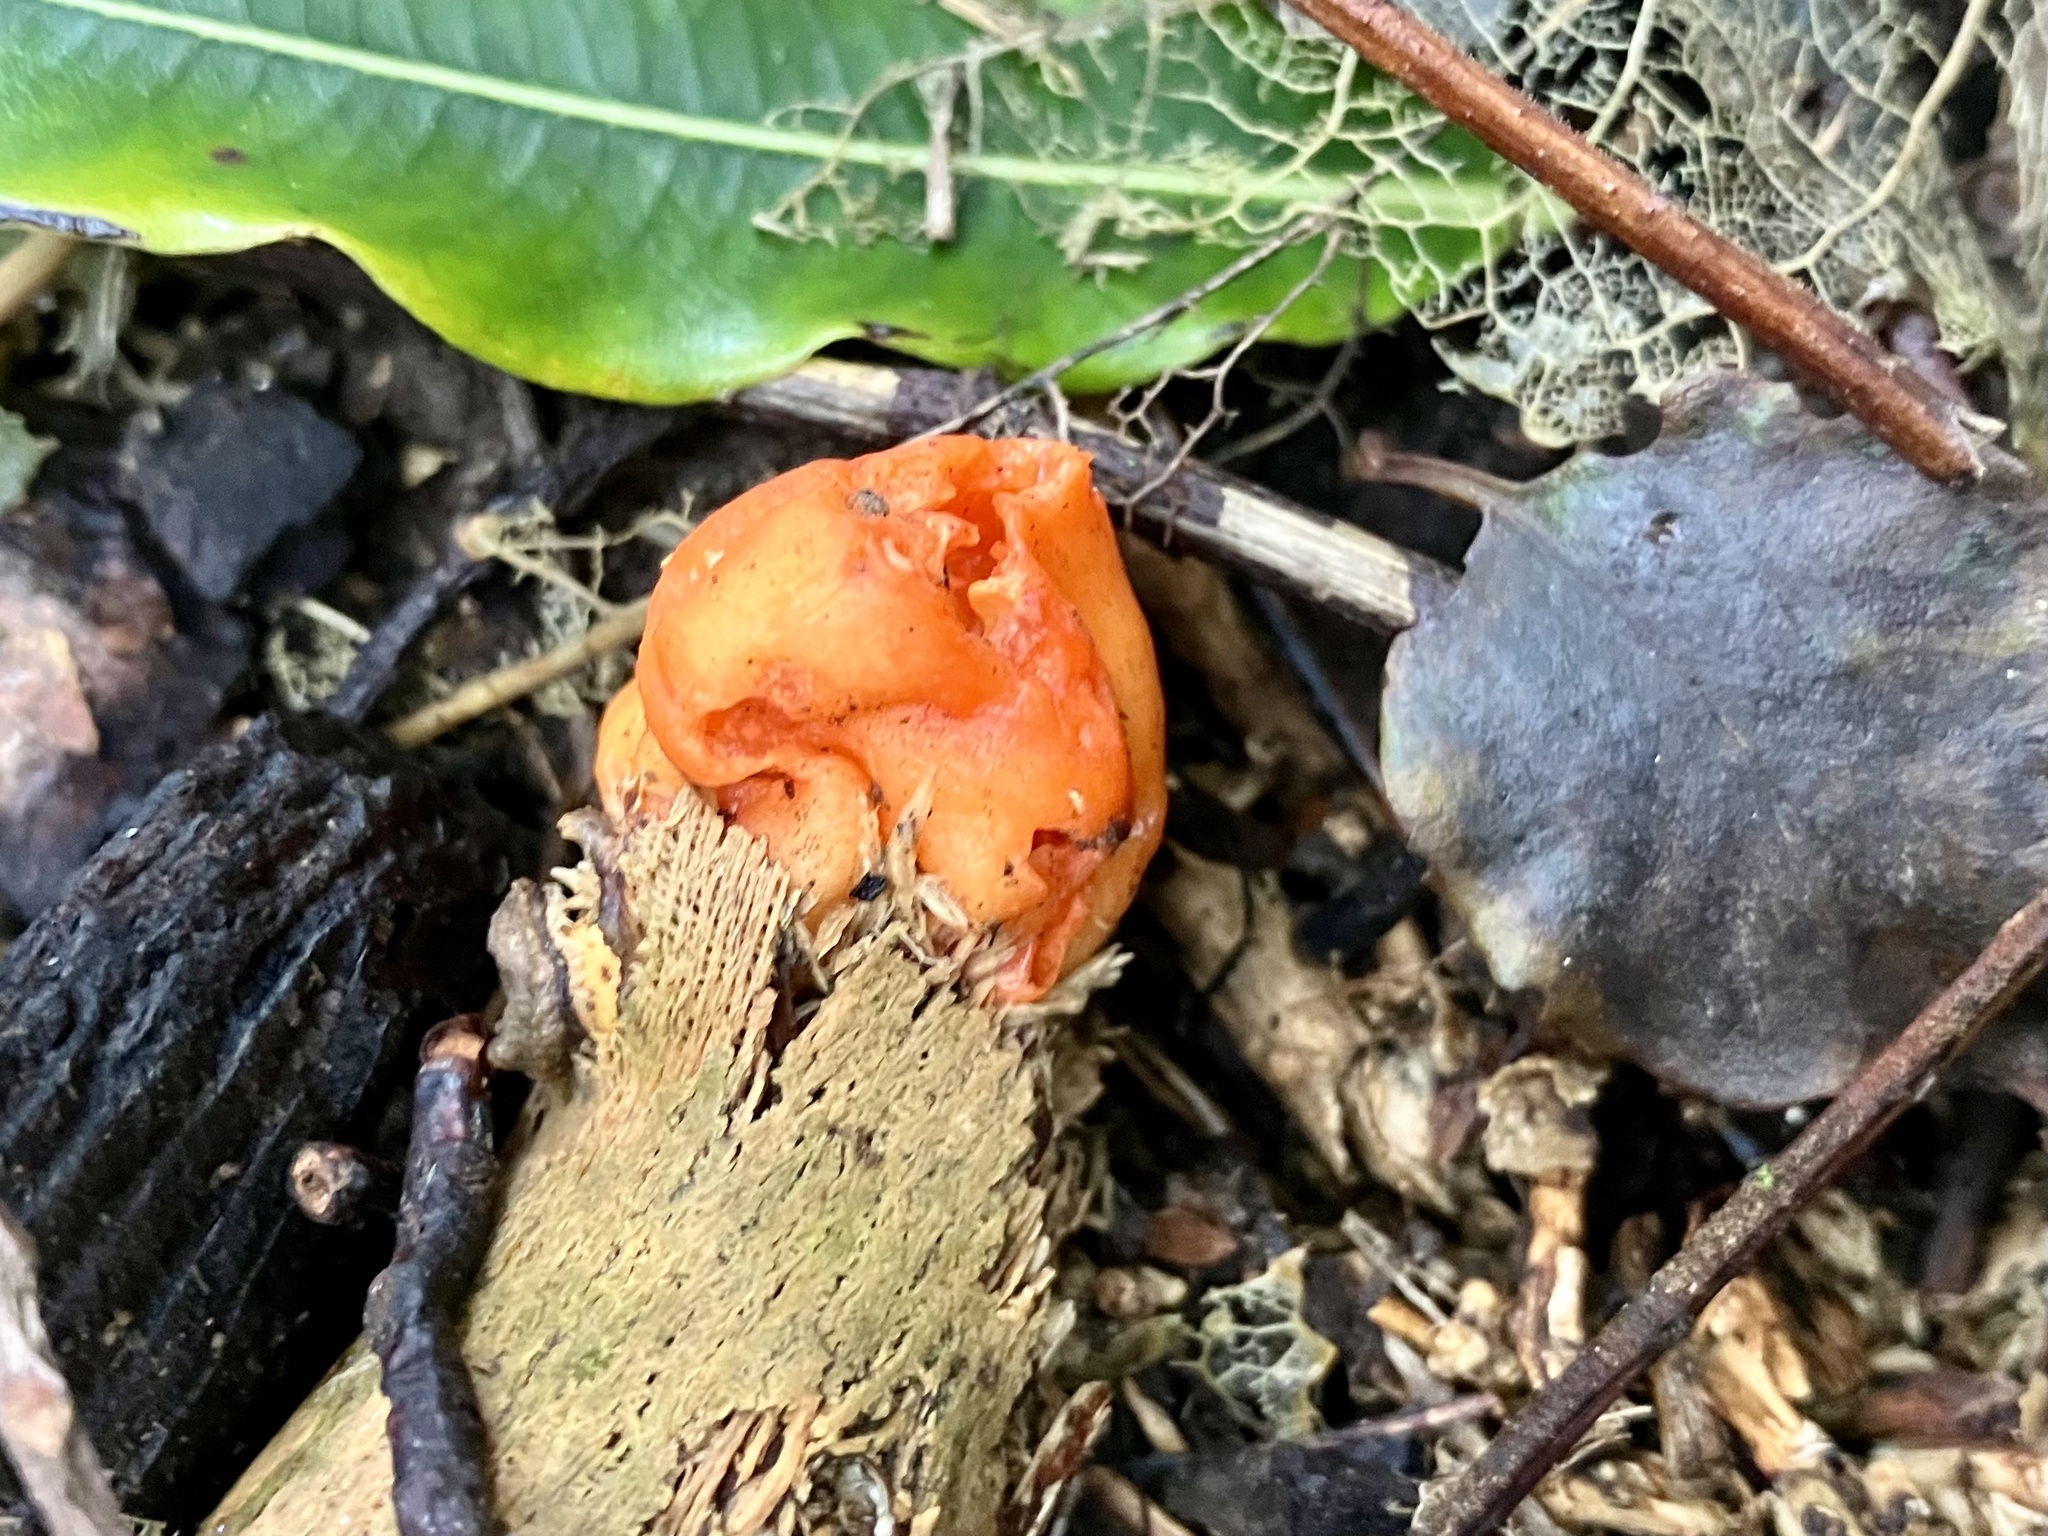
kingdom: Fungi
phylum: Ascomycota
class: Pezizomycetes
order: Pezizales
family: Pyronemataceae
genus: Paurocotylis
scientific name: Paurocotylis pila
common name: Scarlet berry truffle
